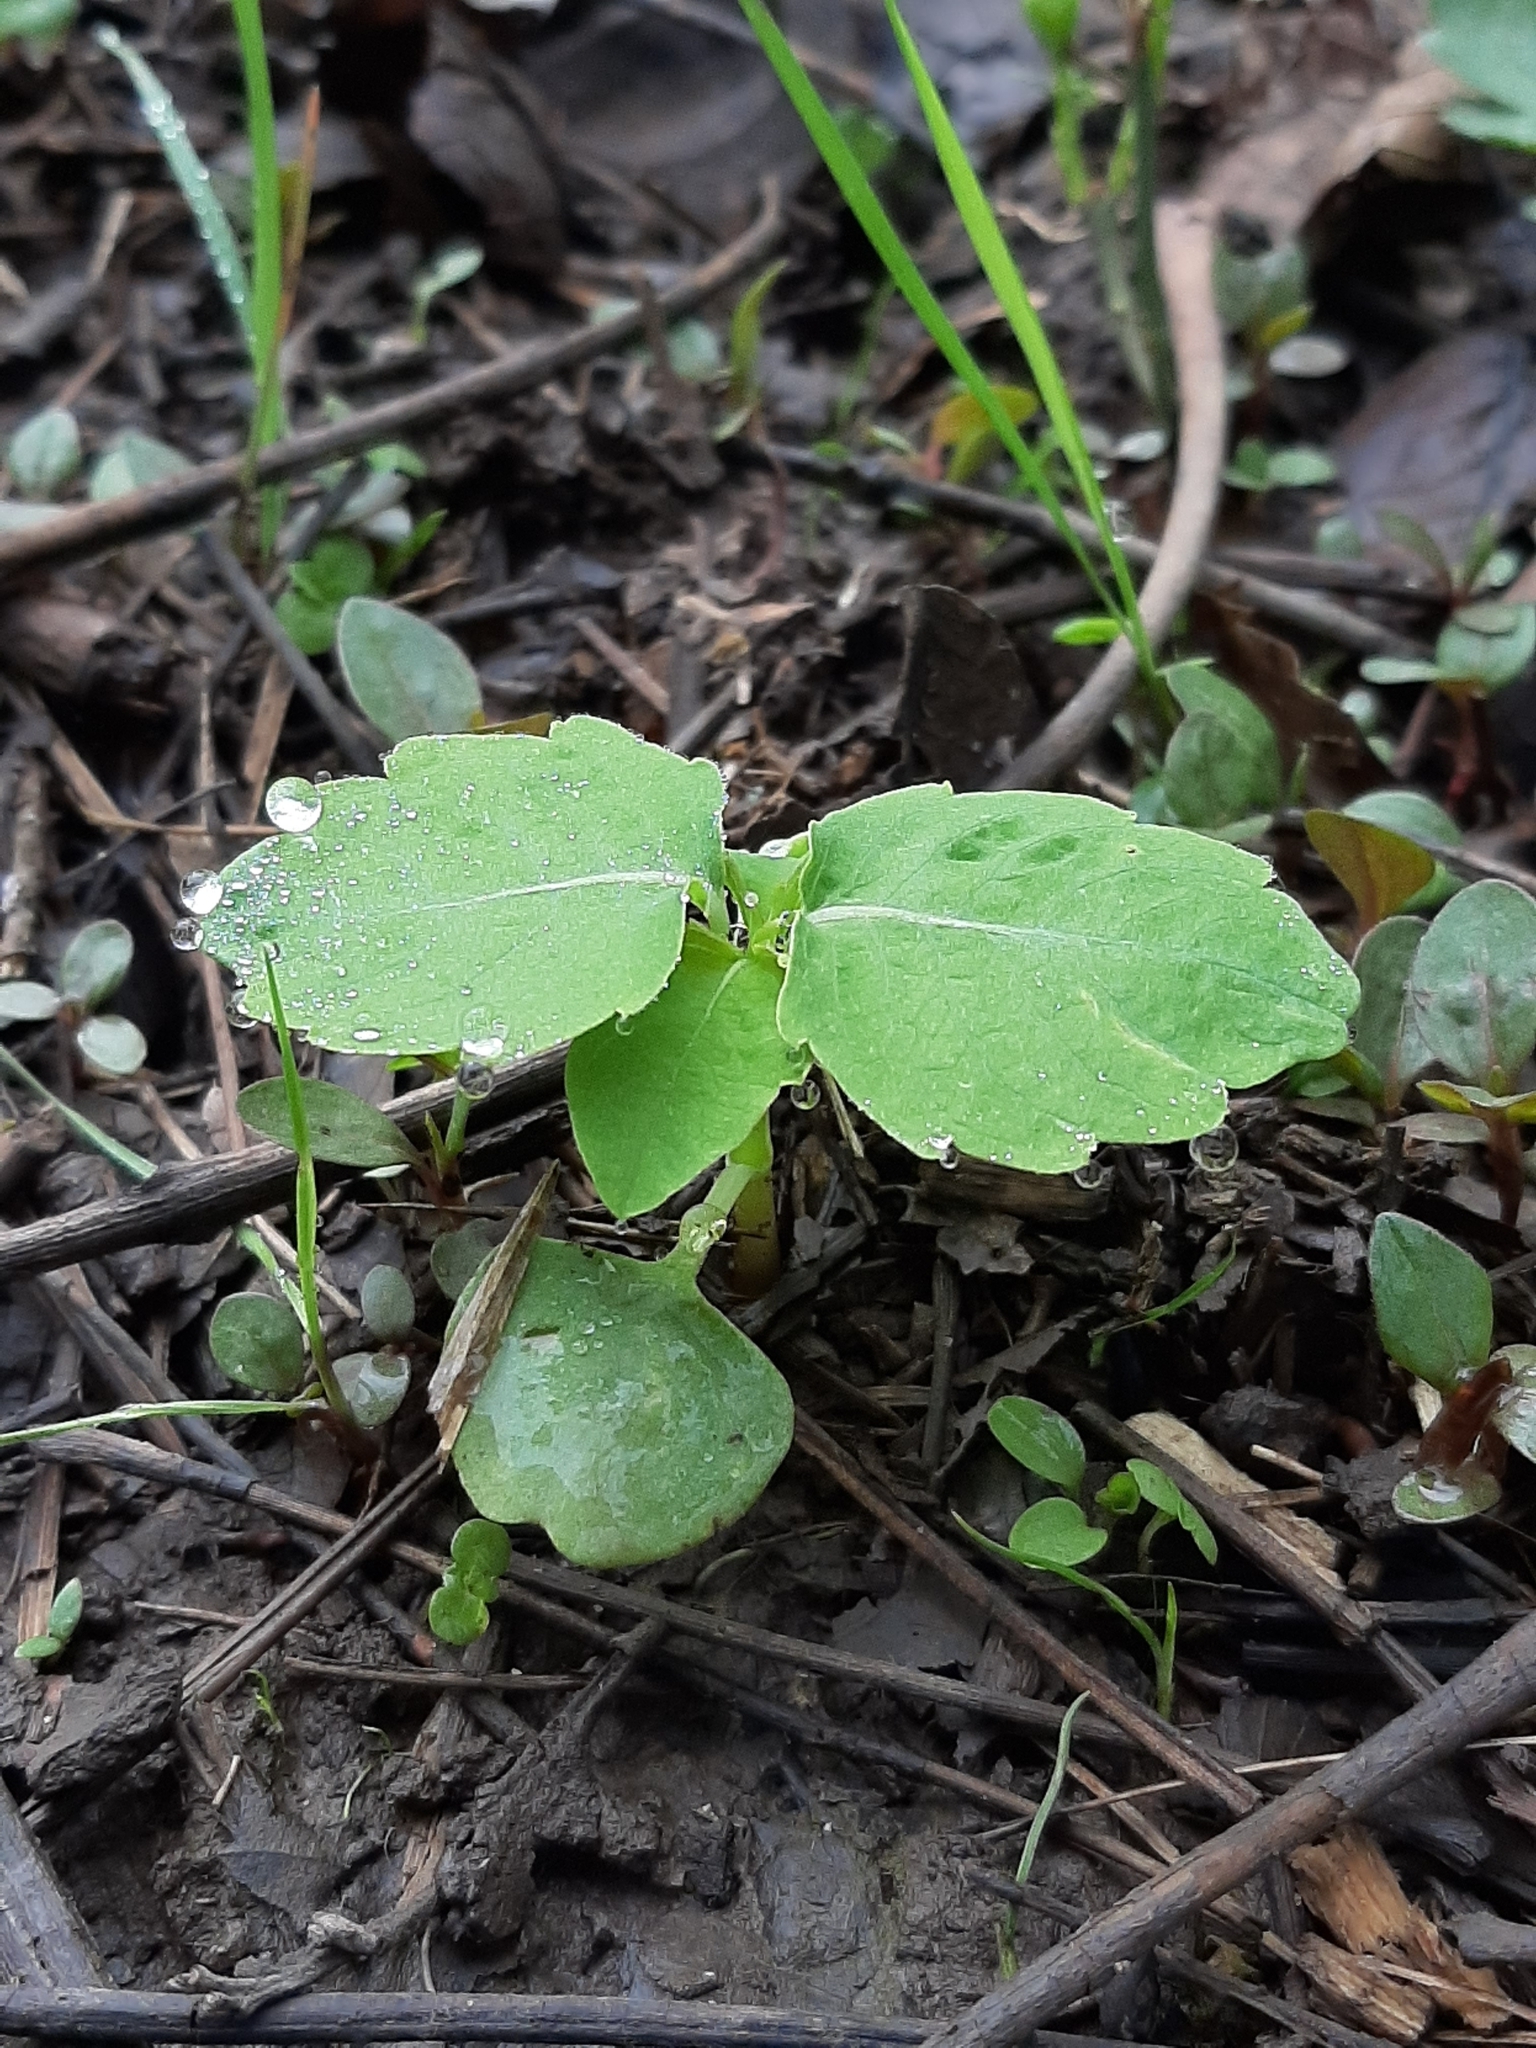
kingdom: Plantae
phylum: Tracheophyta
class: Magnoliopsida
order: Ericales
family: Balsaminaceae
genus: Impatiens
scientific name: Impatiens capensis
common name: Orange balsam
